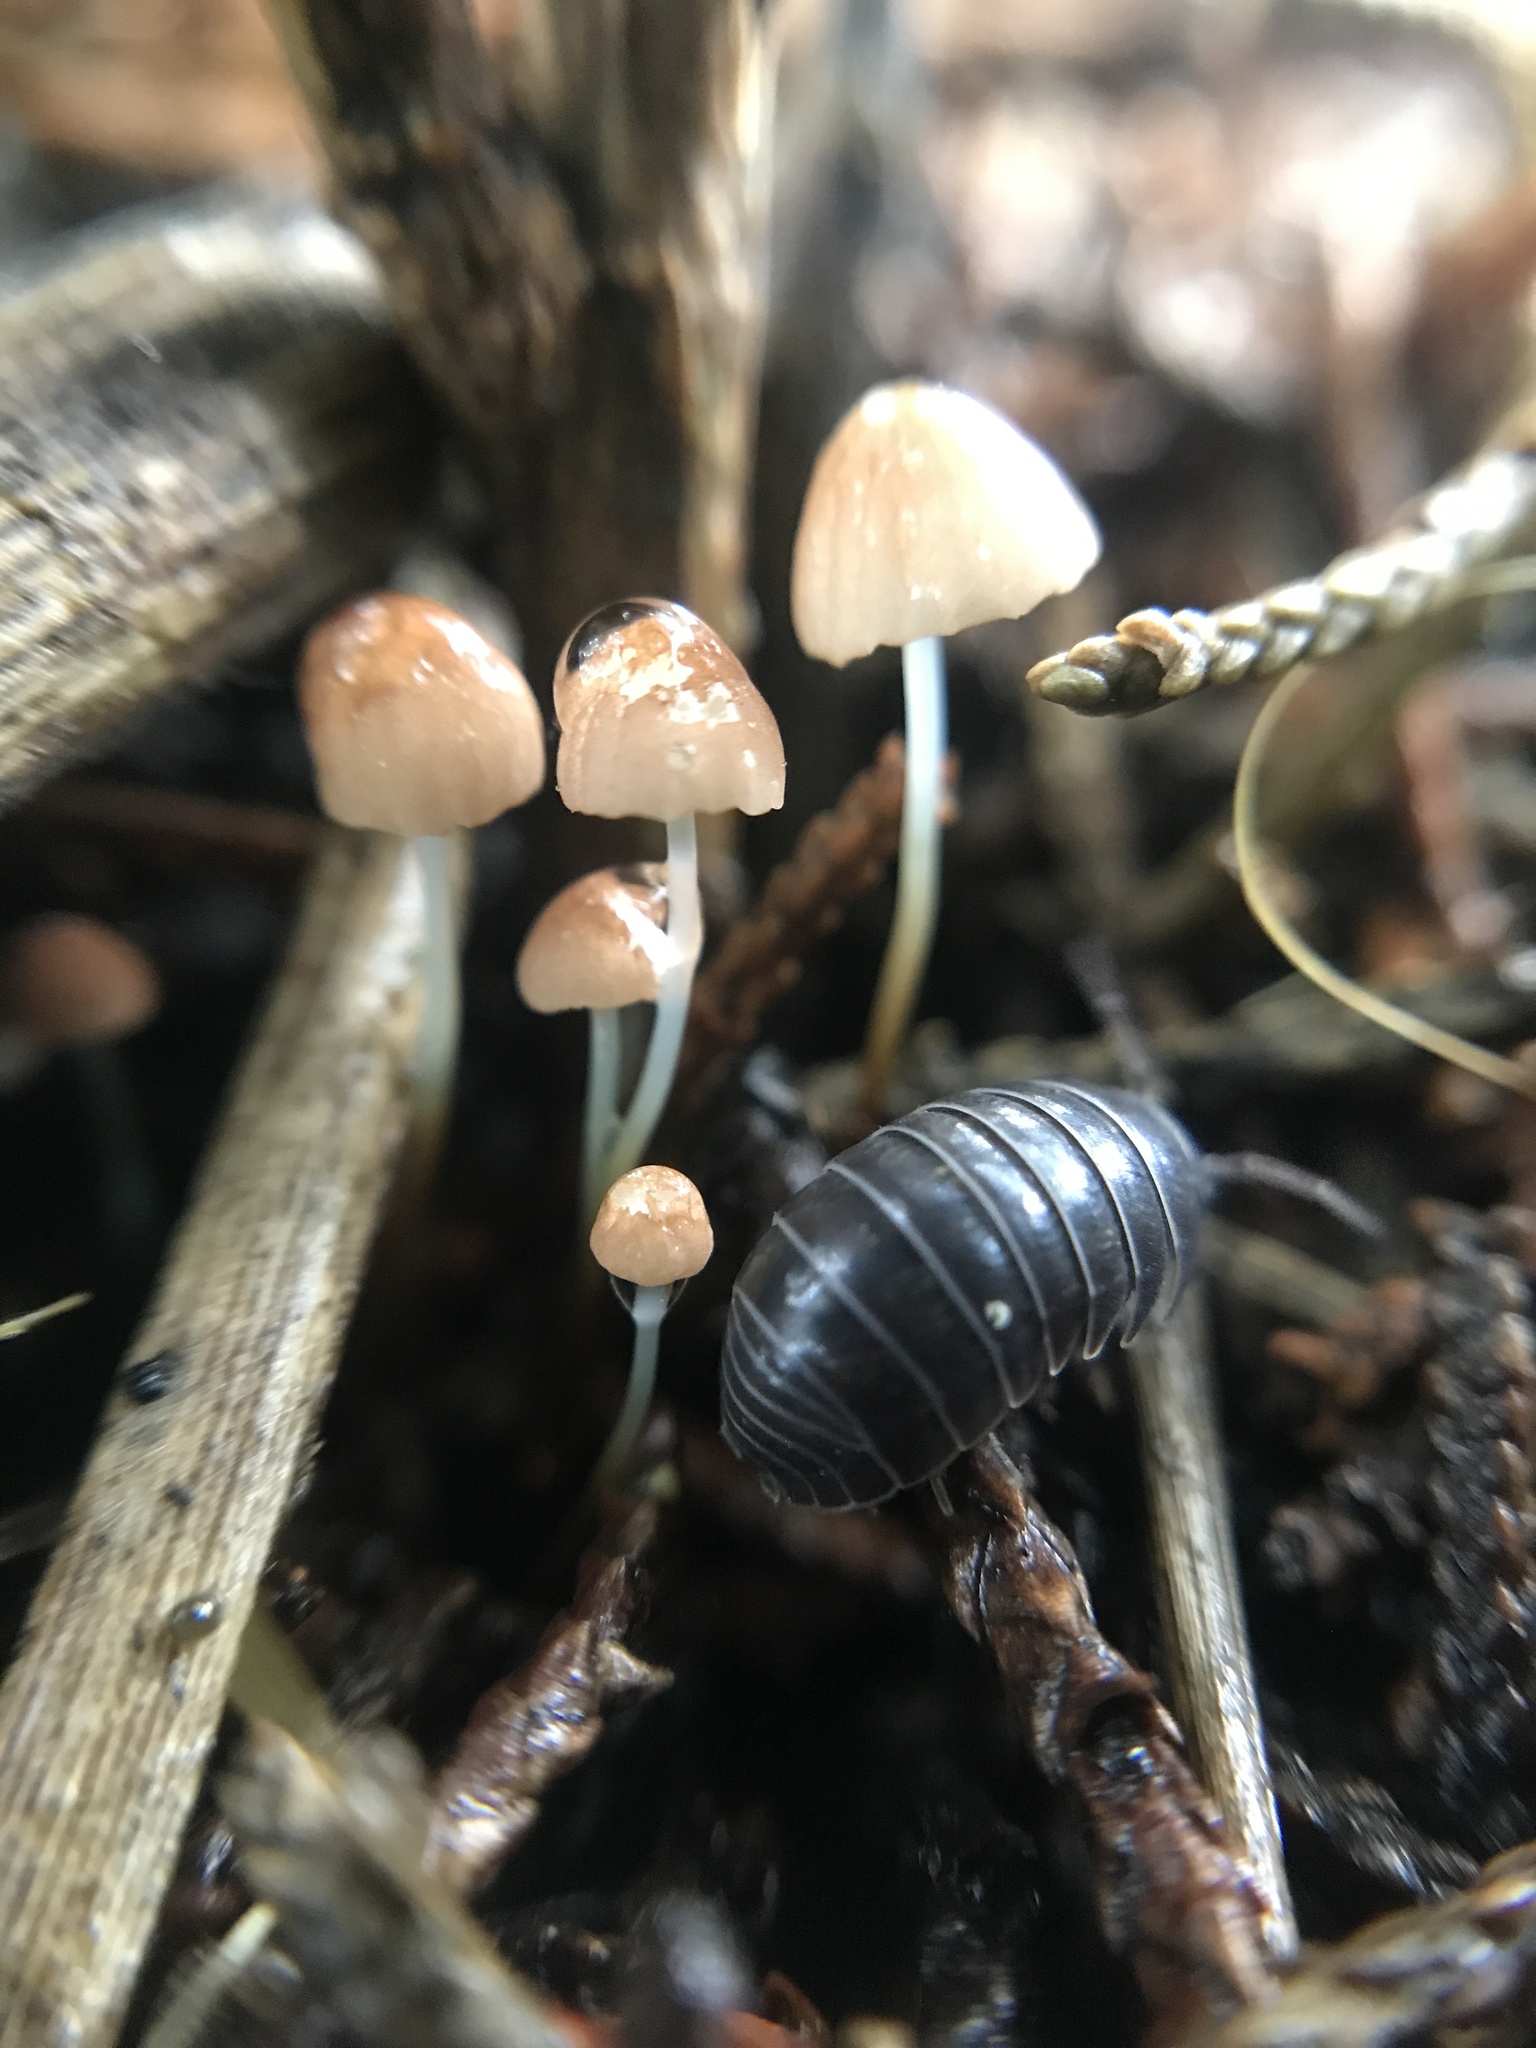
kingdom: Fungi
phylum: Basidiomycota
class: Agaricomycetes
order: Agaricales
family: Marasmiaceae
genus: Marasmius
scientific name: Marasmius siccus
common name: Orange pinwheel
